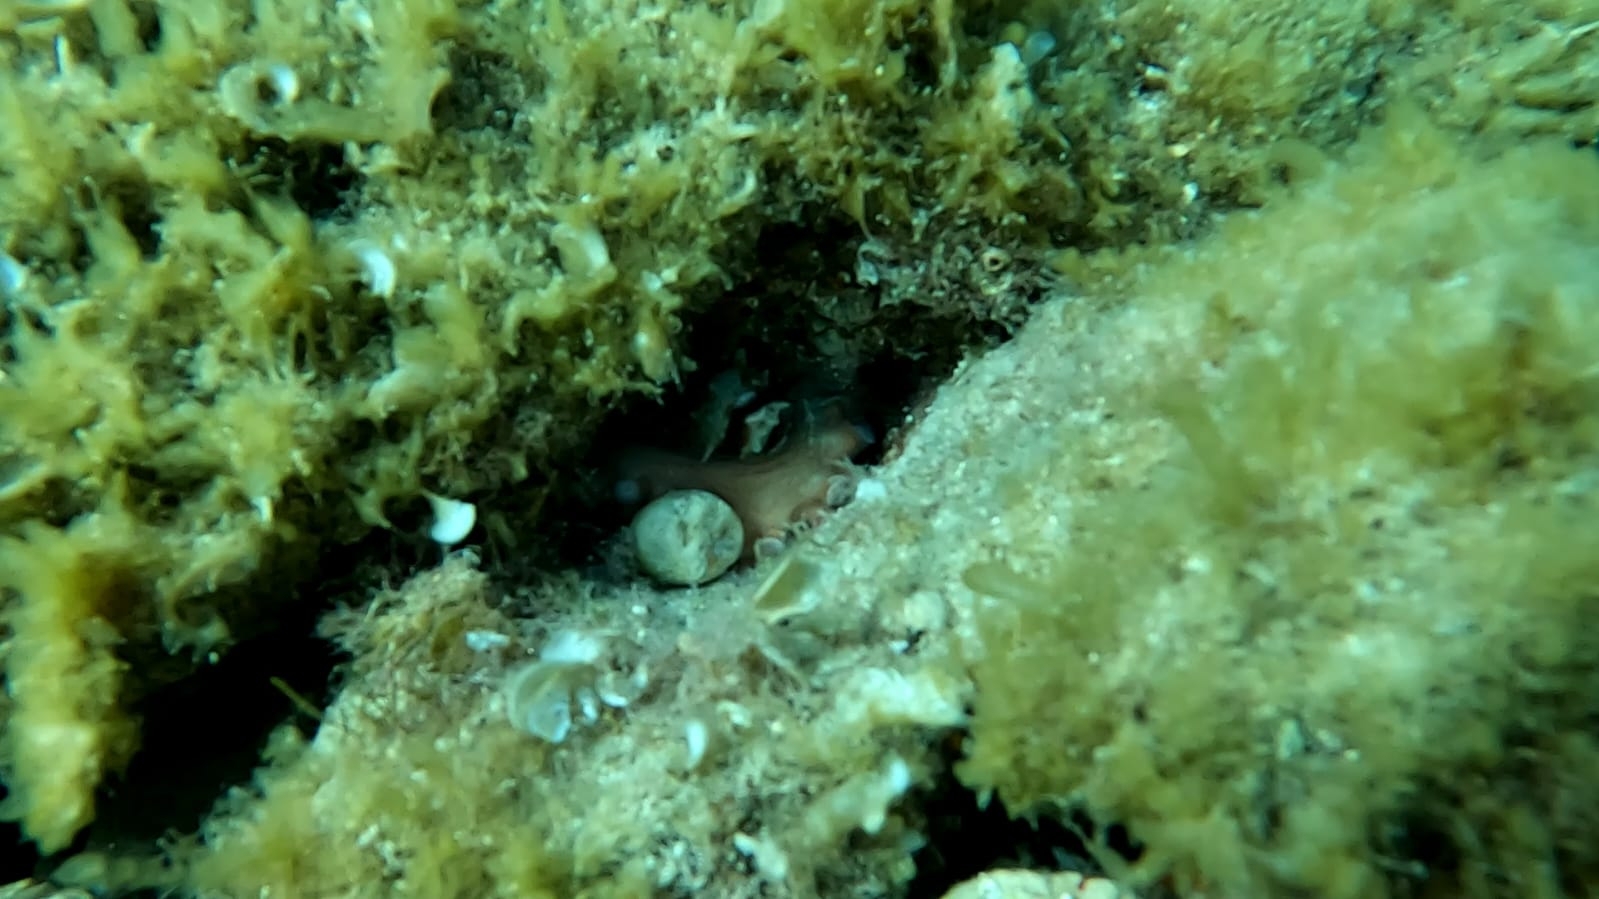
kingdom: Animalia
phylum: Mollusca
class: Cephalopoda
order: Octopoda
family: Octopodidae
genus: Octopus
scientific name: Octopus vulgaris
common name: Common octopus
